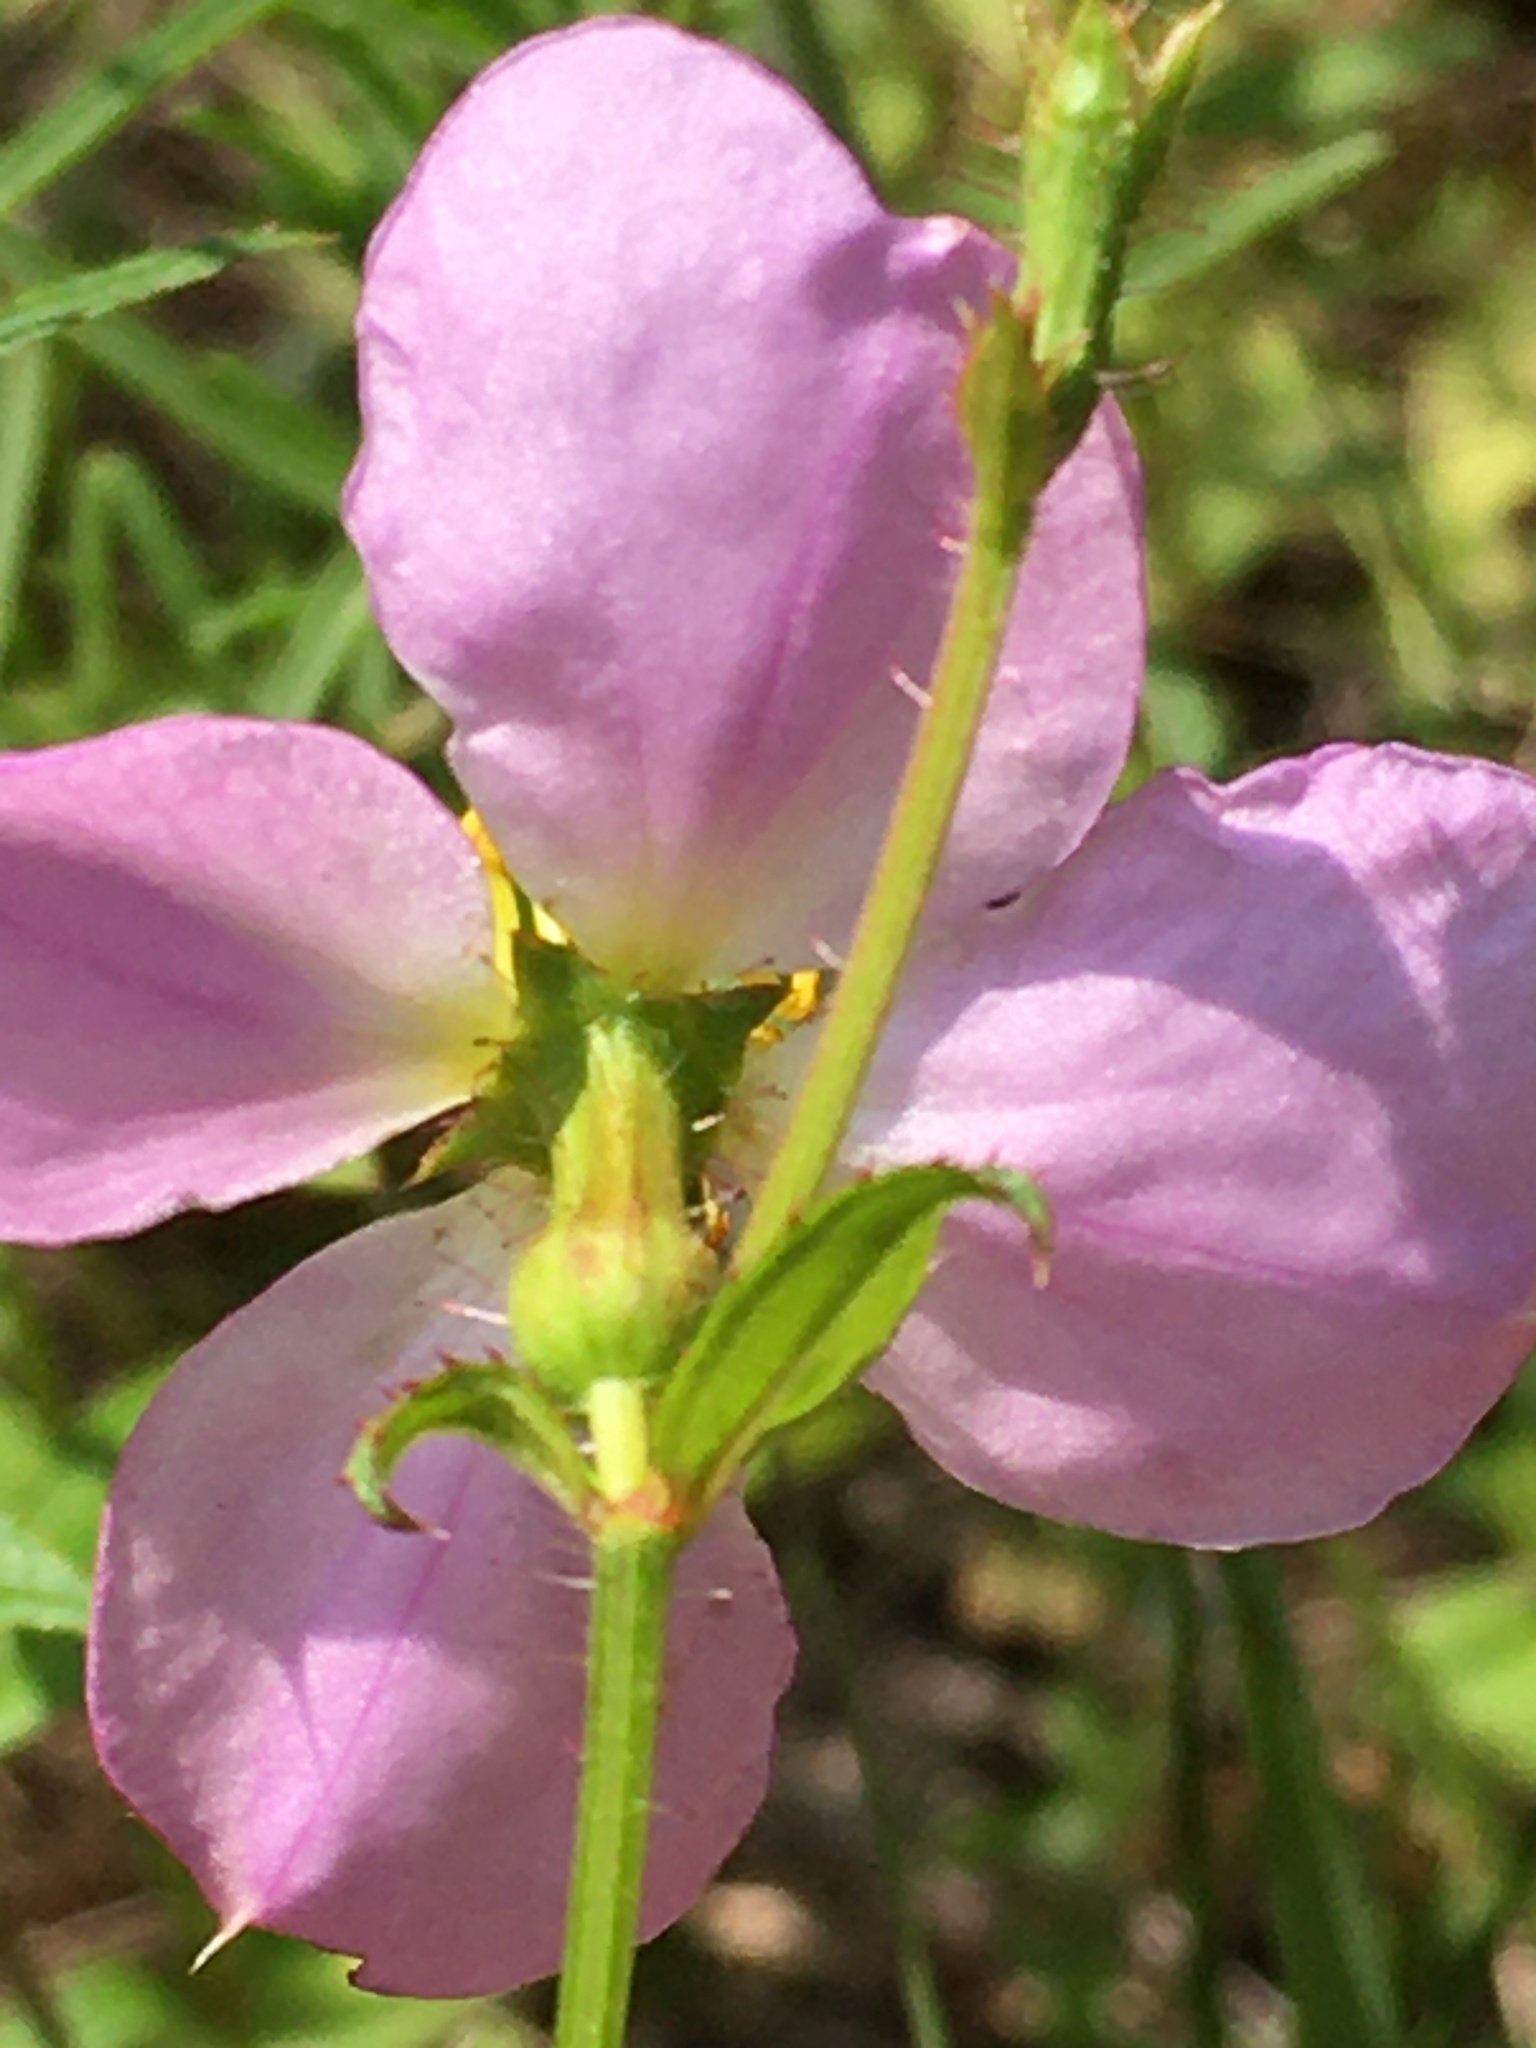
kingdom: Plantae
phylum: Tracheophyta
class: Magnoliopsida
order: Myrtales
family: Melastomataceae
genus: Rhexia
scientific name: Rhexia mariana
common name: Dull meadow-pitcher
